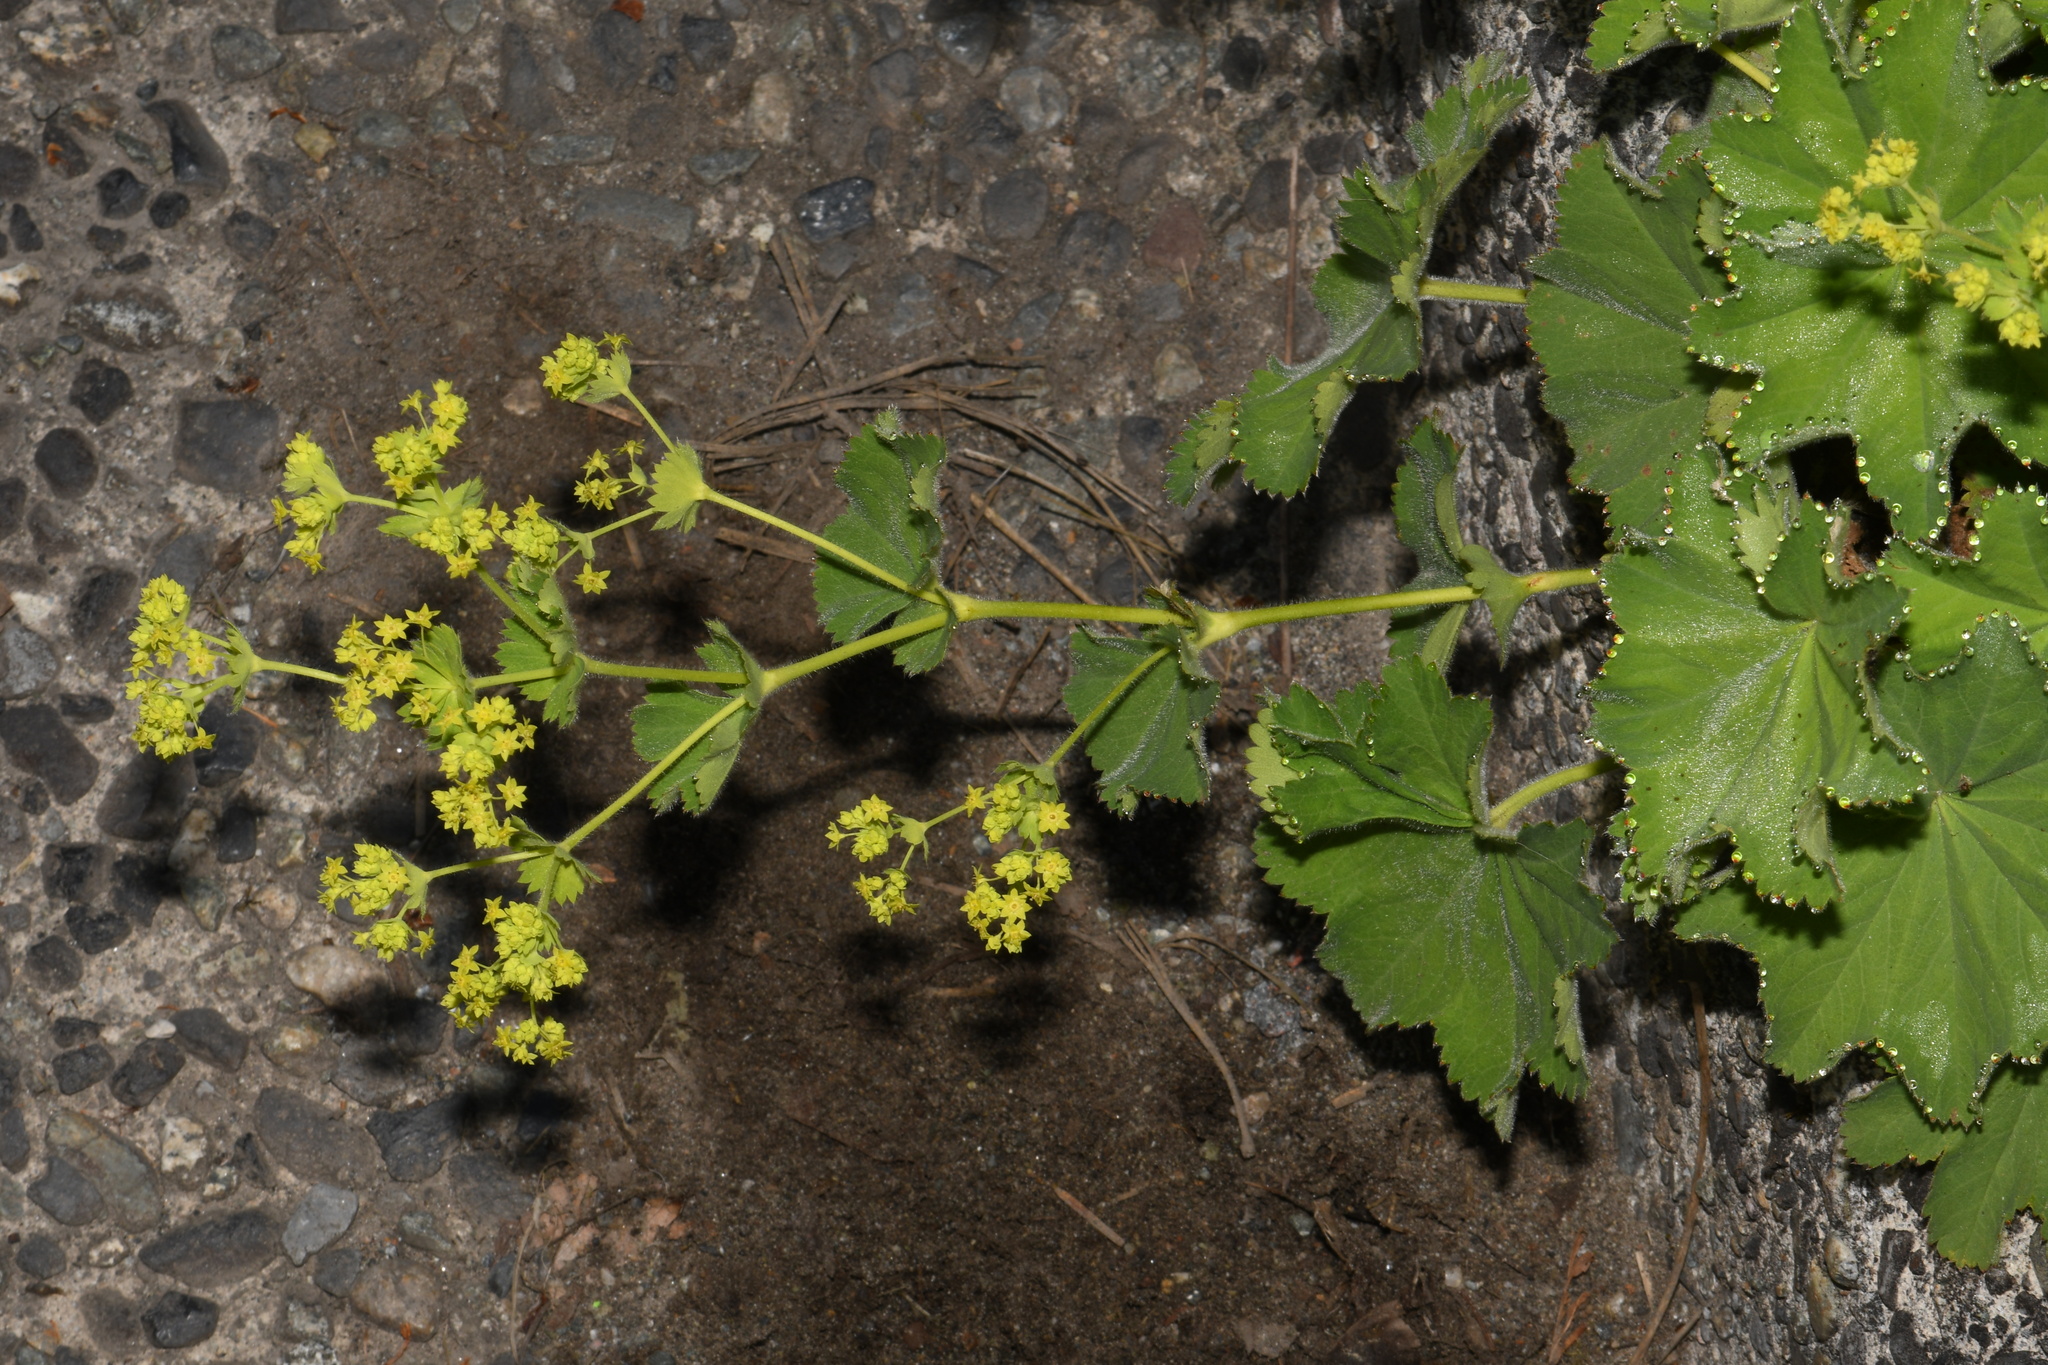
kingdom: Plantae
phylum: Tracheophyta
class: Magnoliopsida
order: Rosales
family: Rosaceae
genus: Alchemilla
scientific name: Alchemilla mollis
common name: Lady's-mantle
